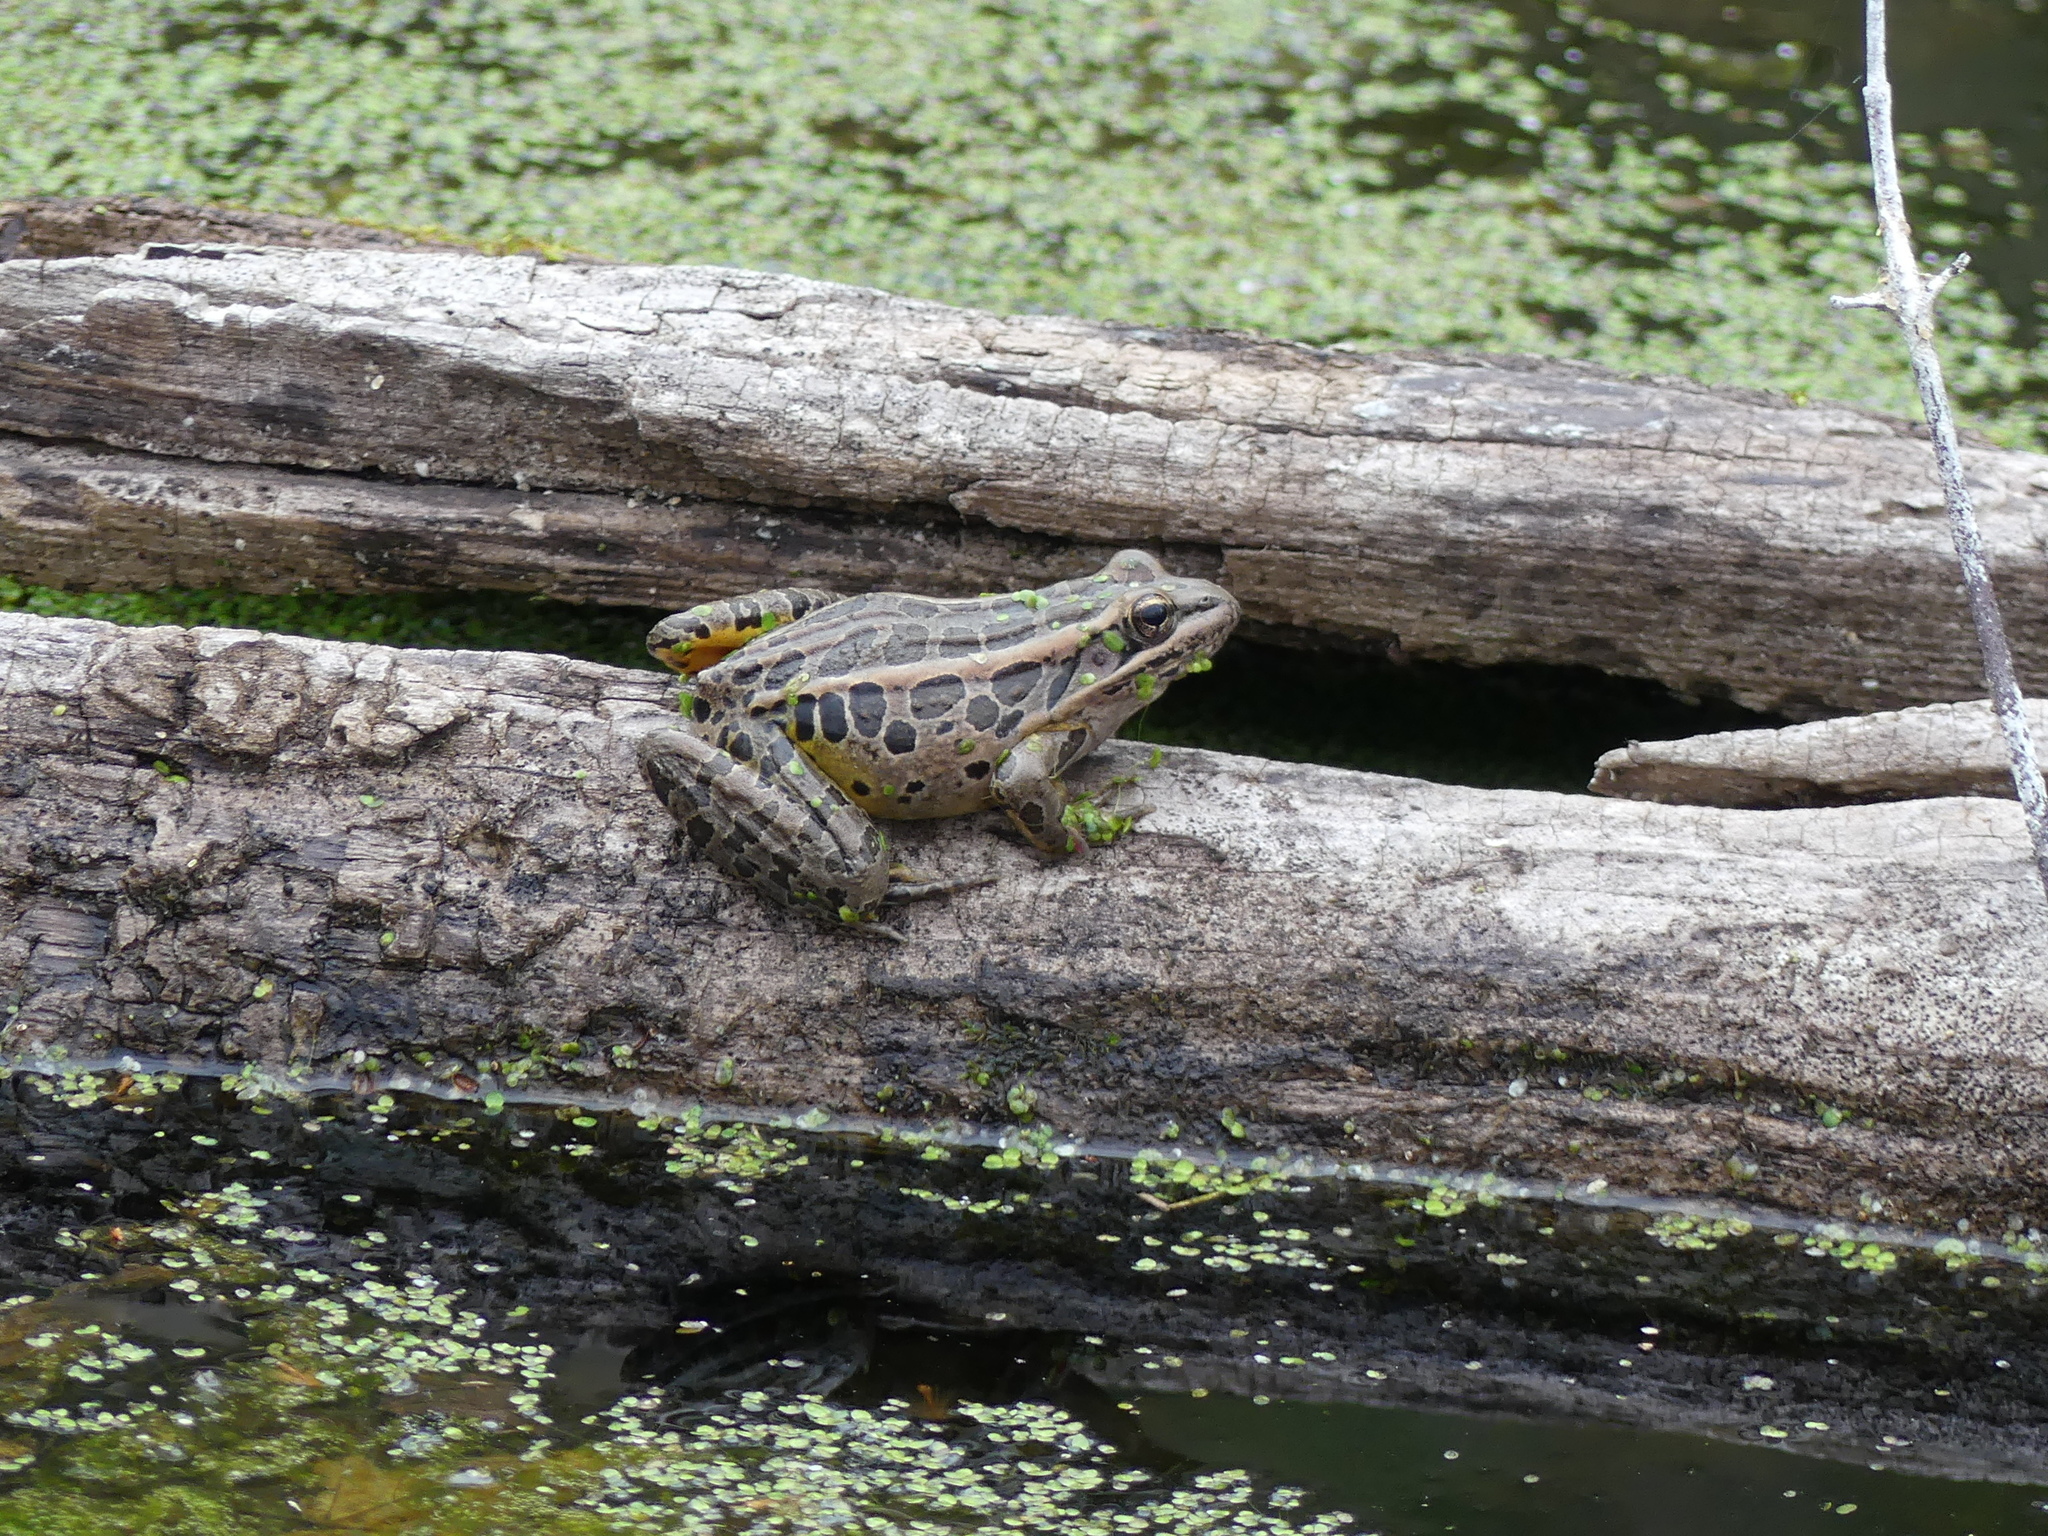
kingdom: Animalia
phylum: Chordata
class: Amphibia
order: Anura
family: Ranidae
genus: Lithobates
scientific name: Lithobates palustris
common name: Pickerel frog
